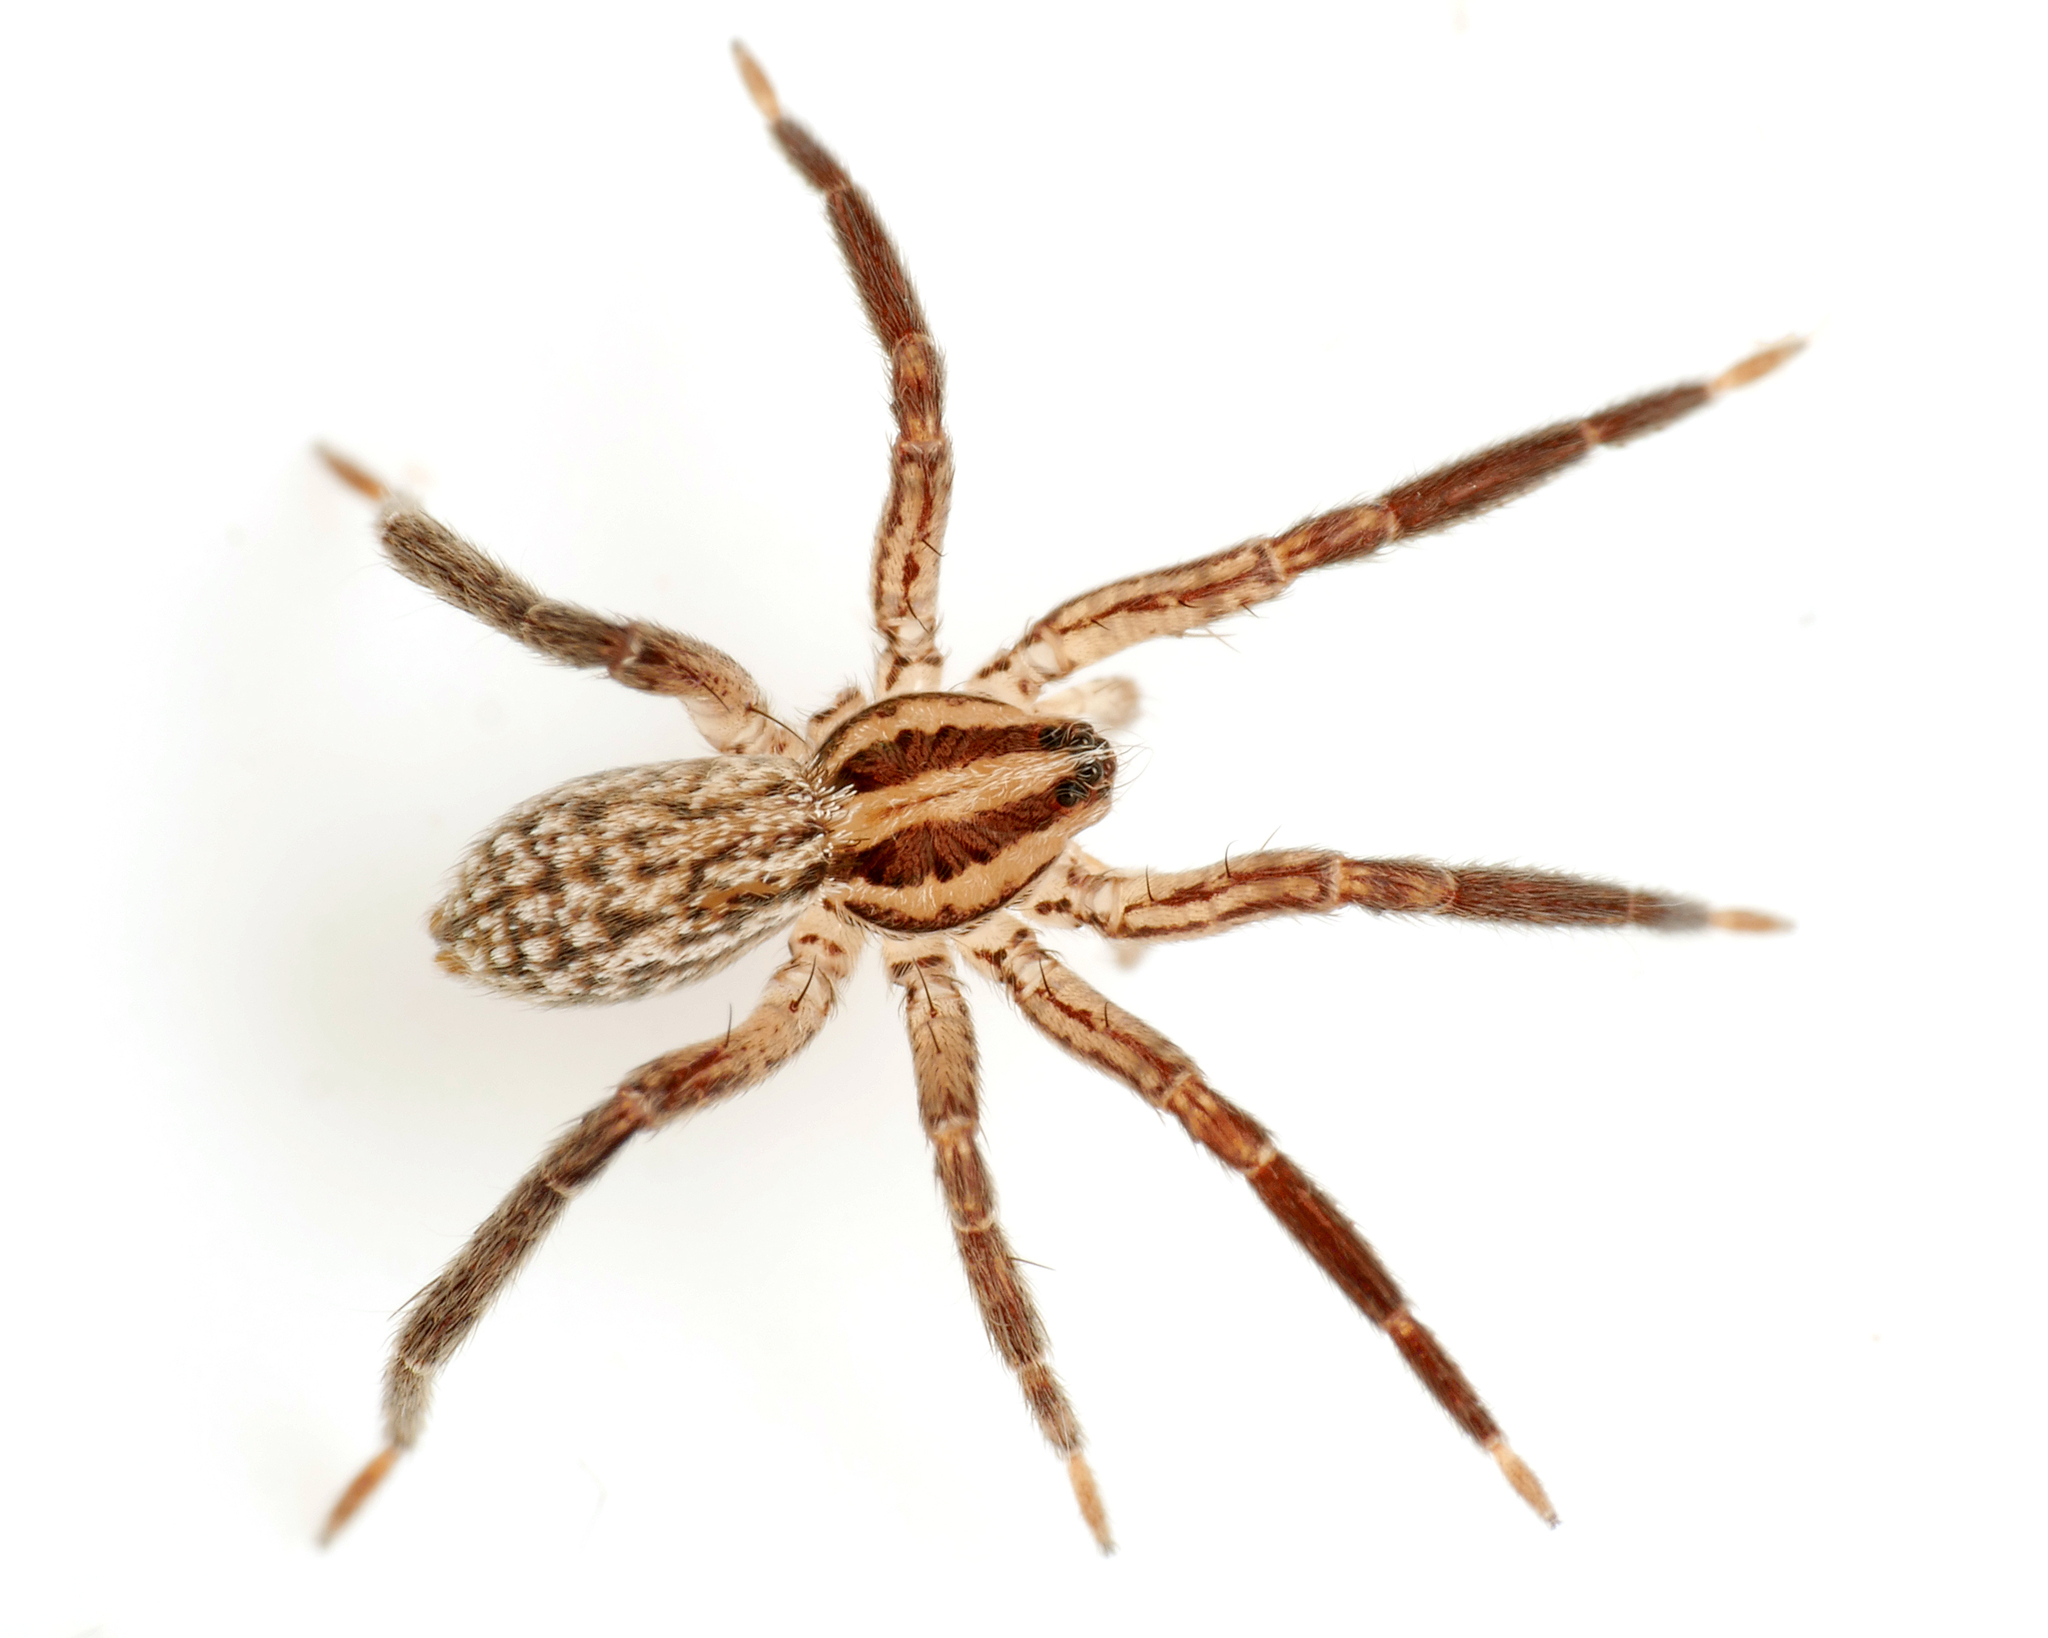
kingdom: Animalia
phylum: Arthropoda
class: Arachnida
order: Araneae
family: Miturgidae
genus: Zora
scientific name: Zora silvestris
